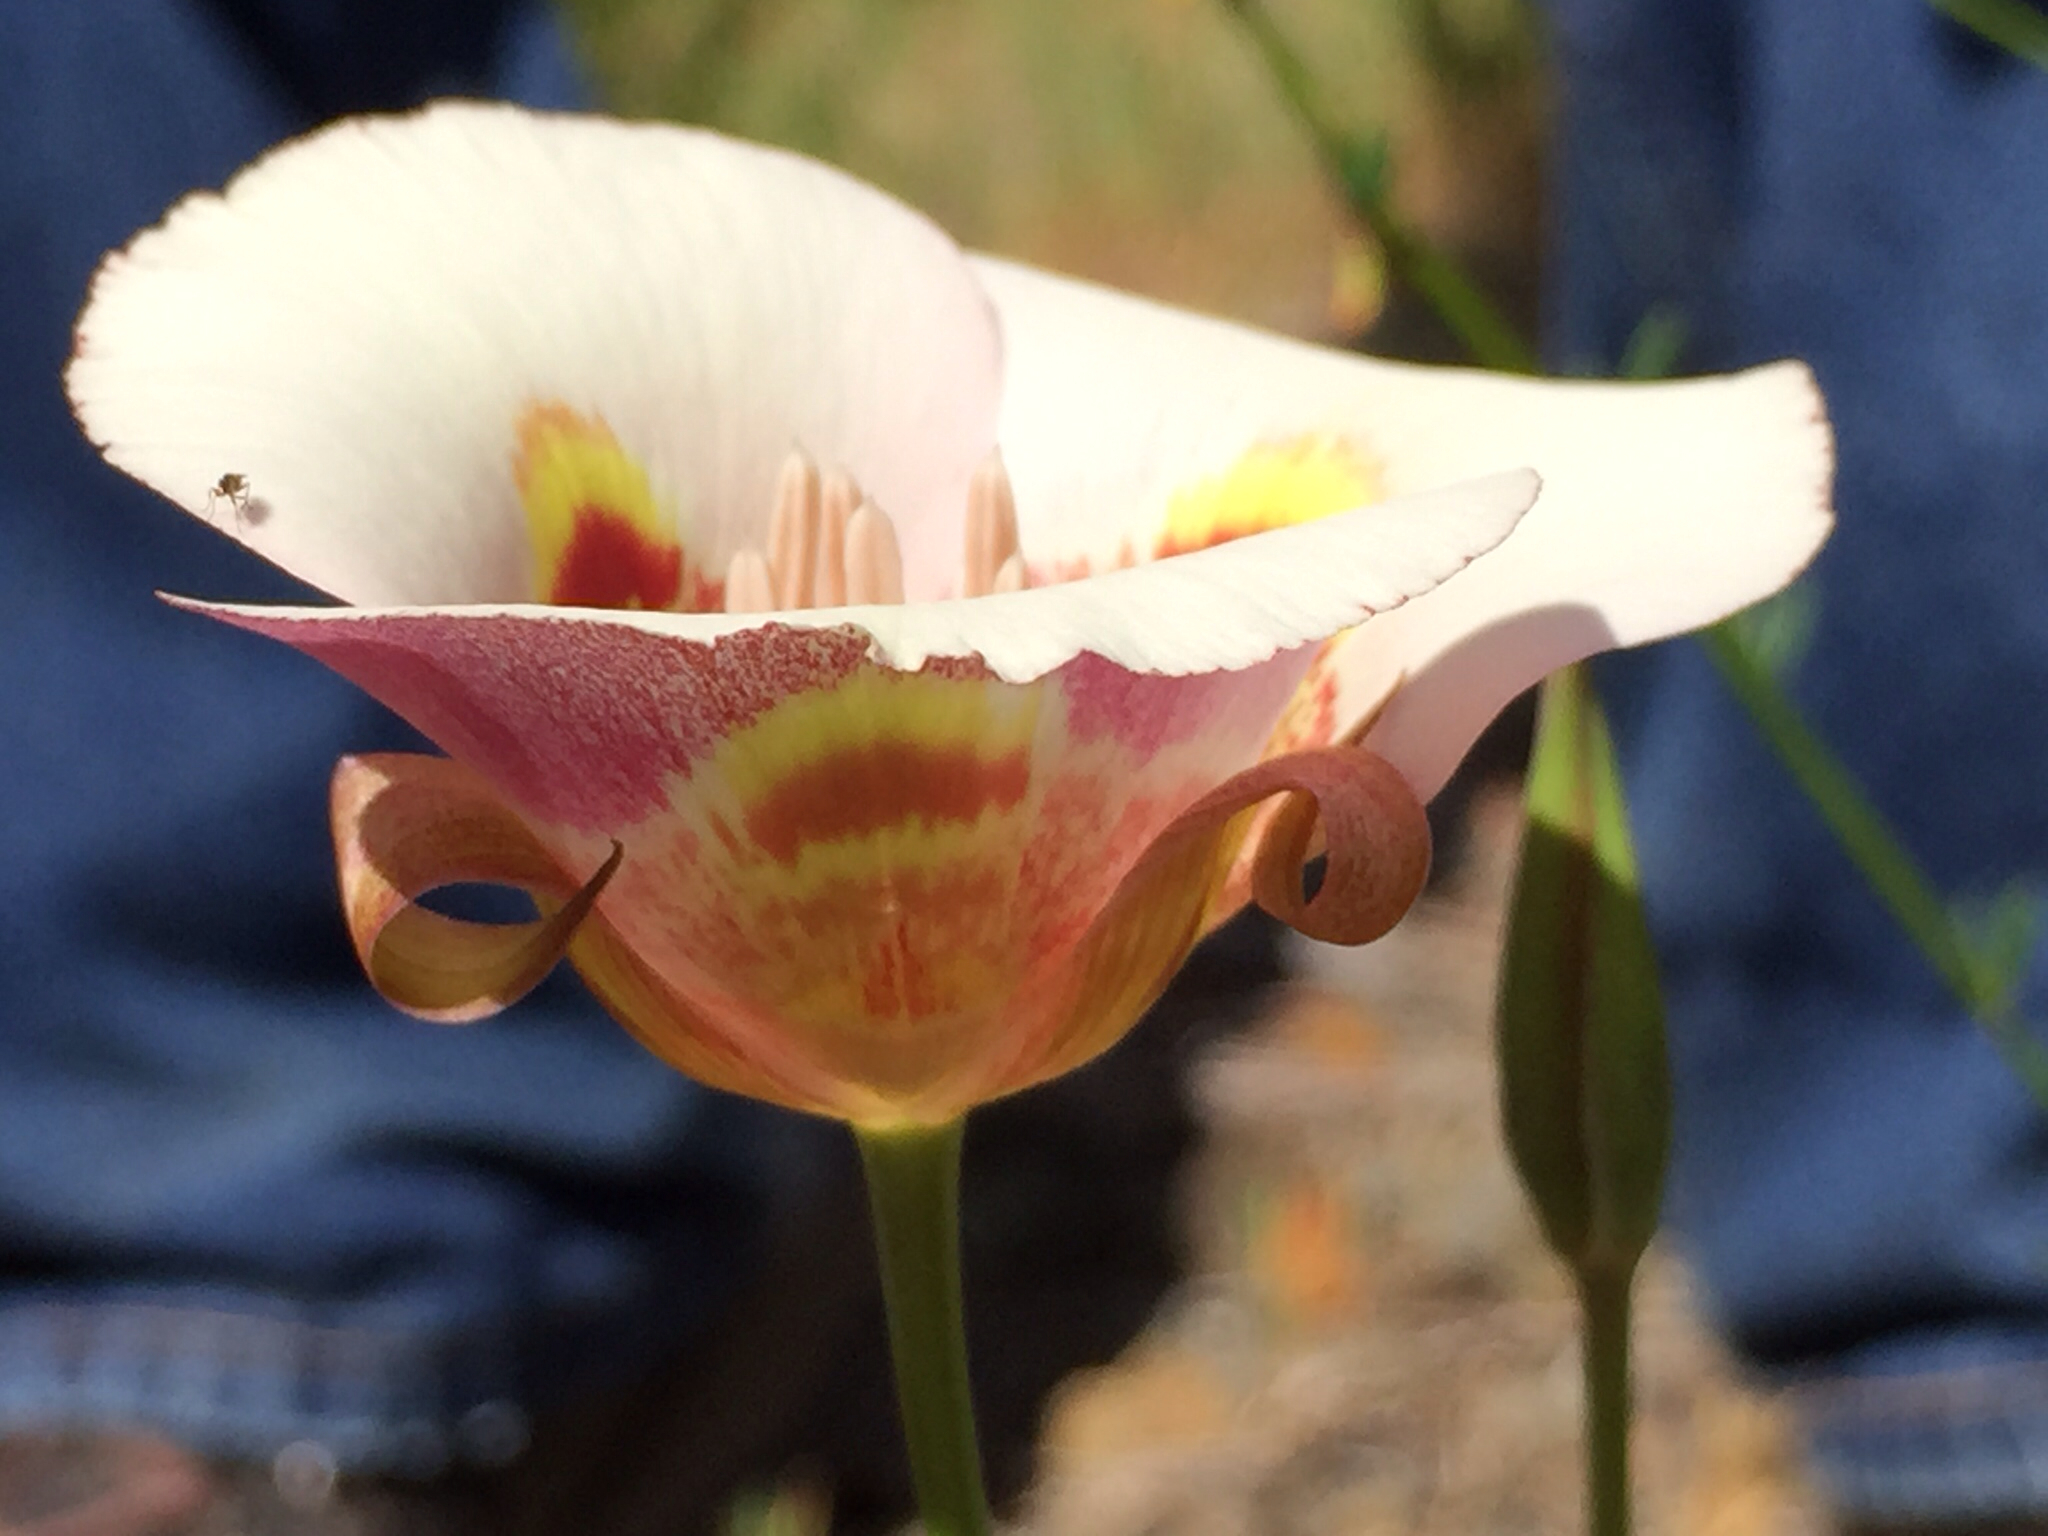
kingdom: Plantae
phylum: Tracheophyta
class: Liliopsida
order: Liliales
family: Liliaceae
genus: Calochortus
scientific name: Calochortus argillosus
